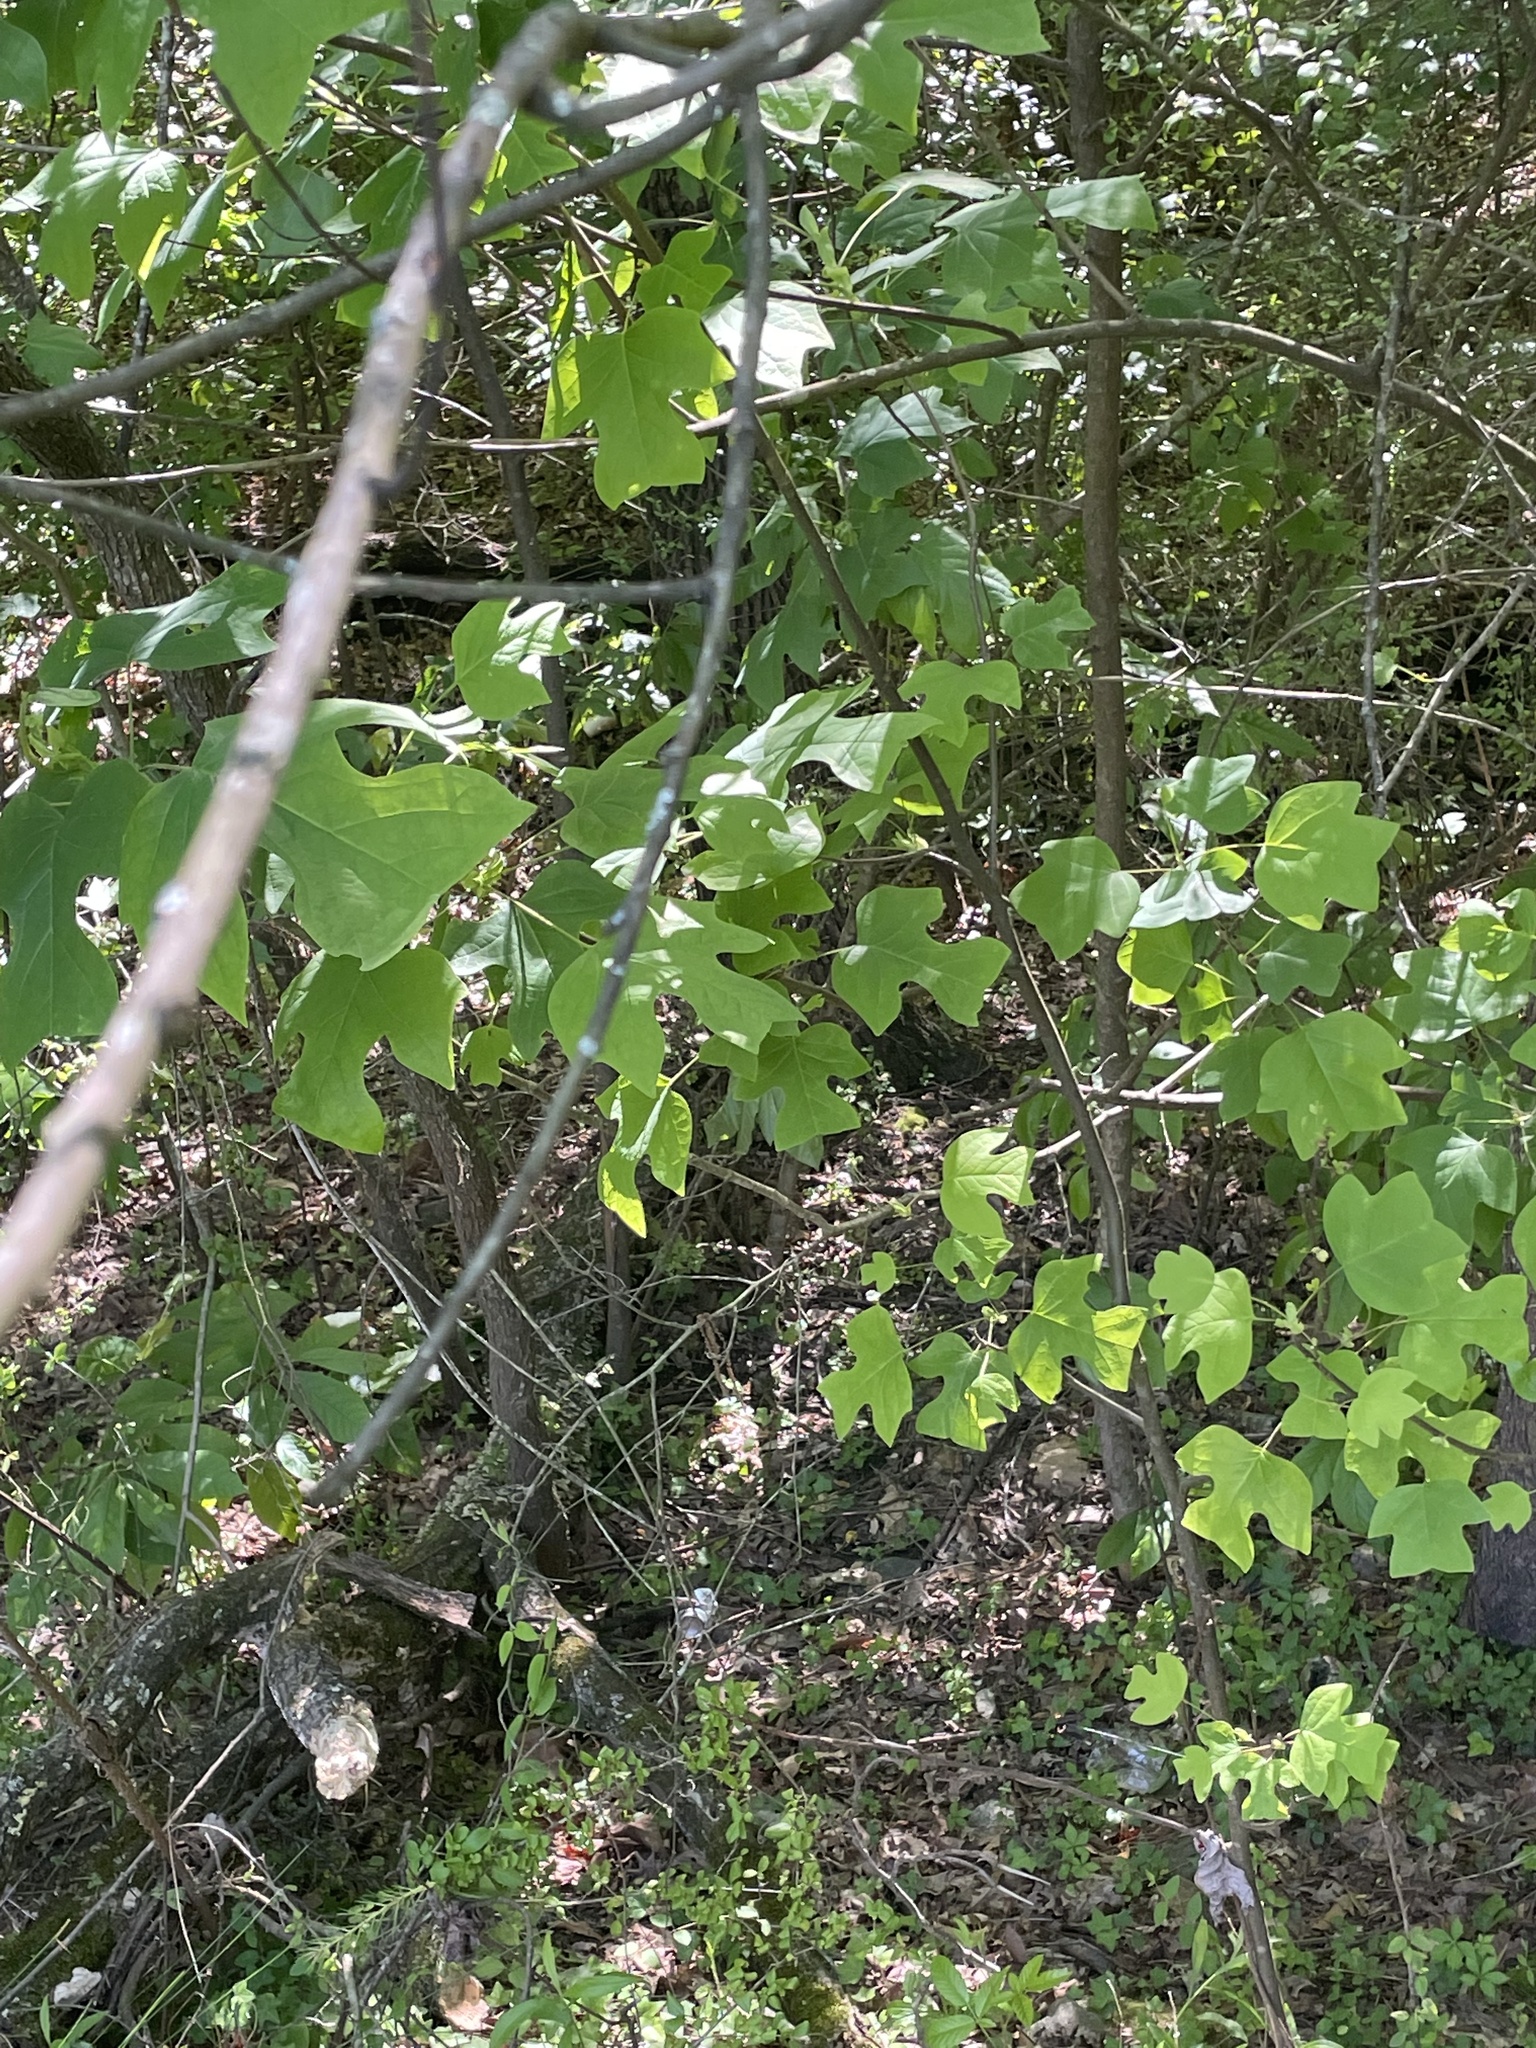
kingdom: Plantae
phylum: Tracheophyta
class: Magnoliopsida
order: Magnoliales
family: Magnoliaceae
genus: Liriodendron
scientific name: Liriodendron tulipifera
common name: Tulip tree
